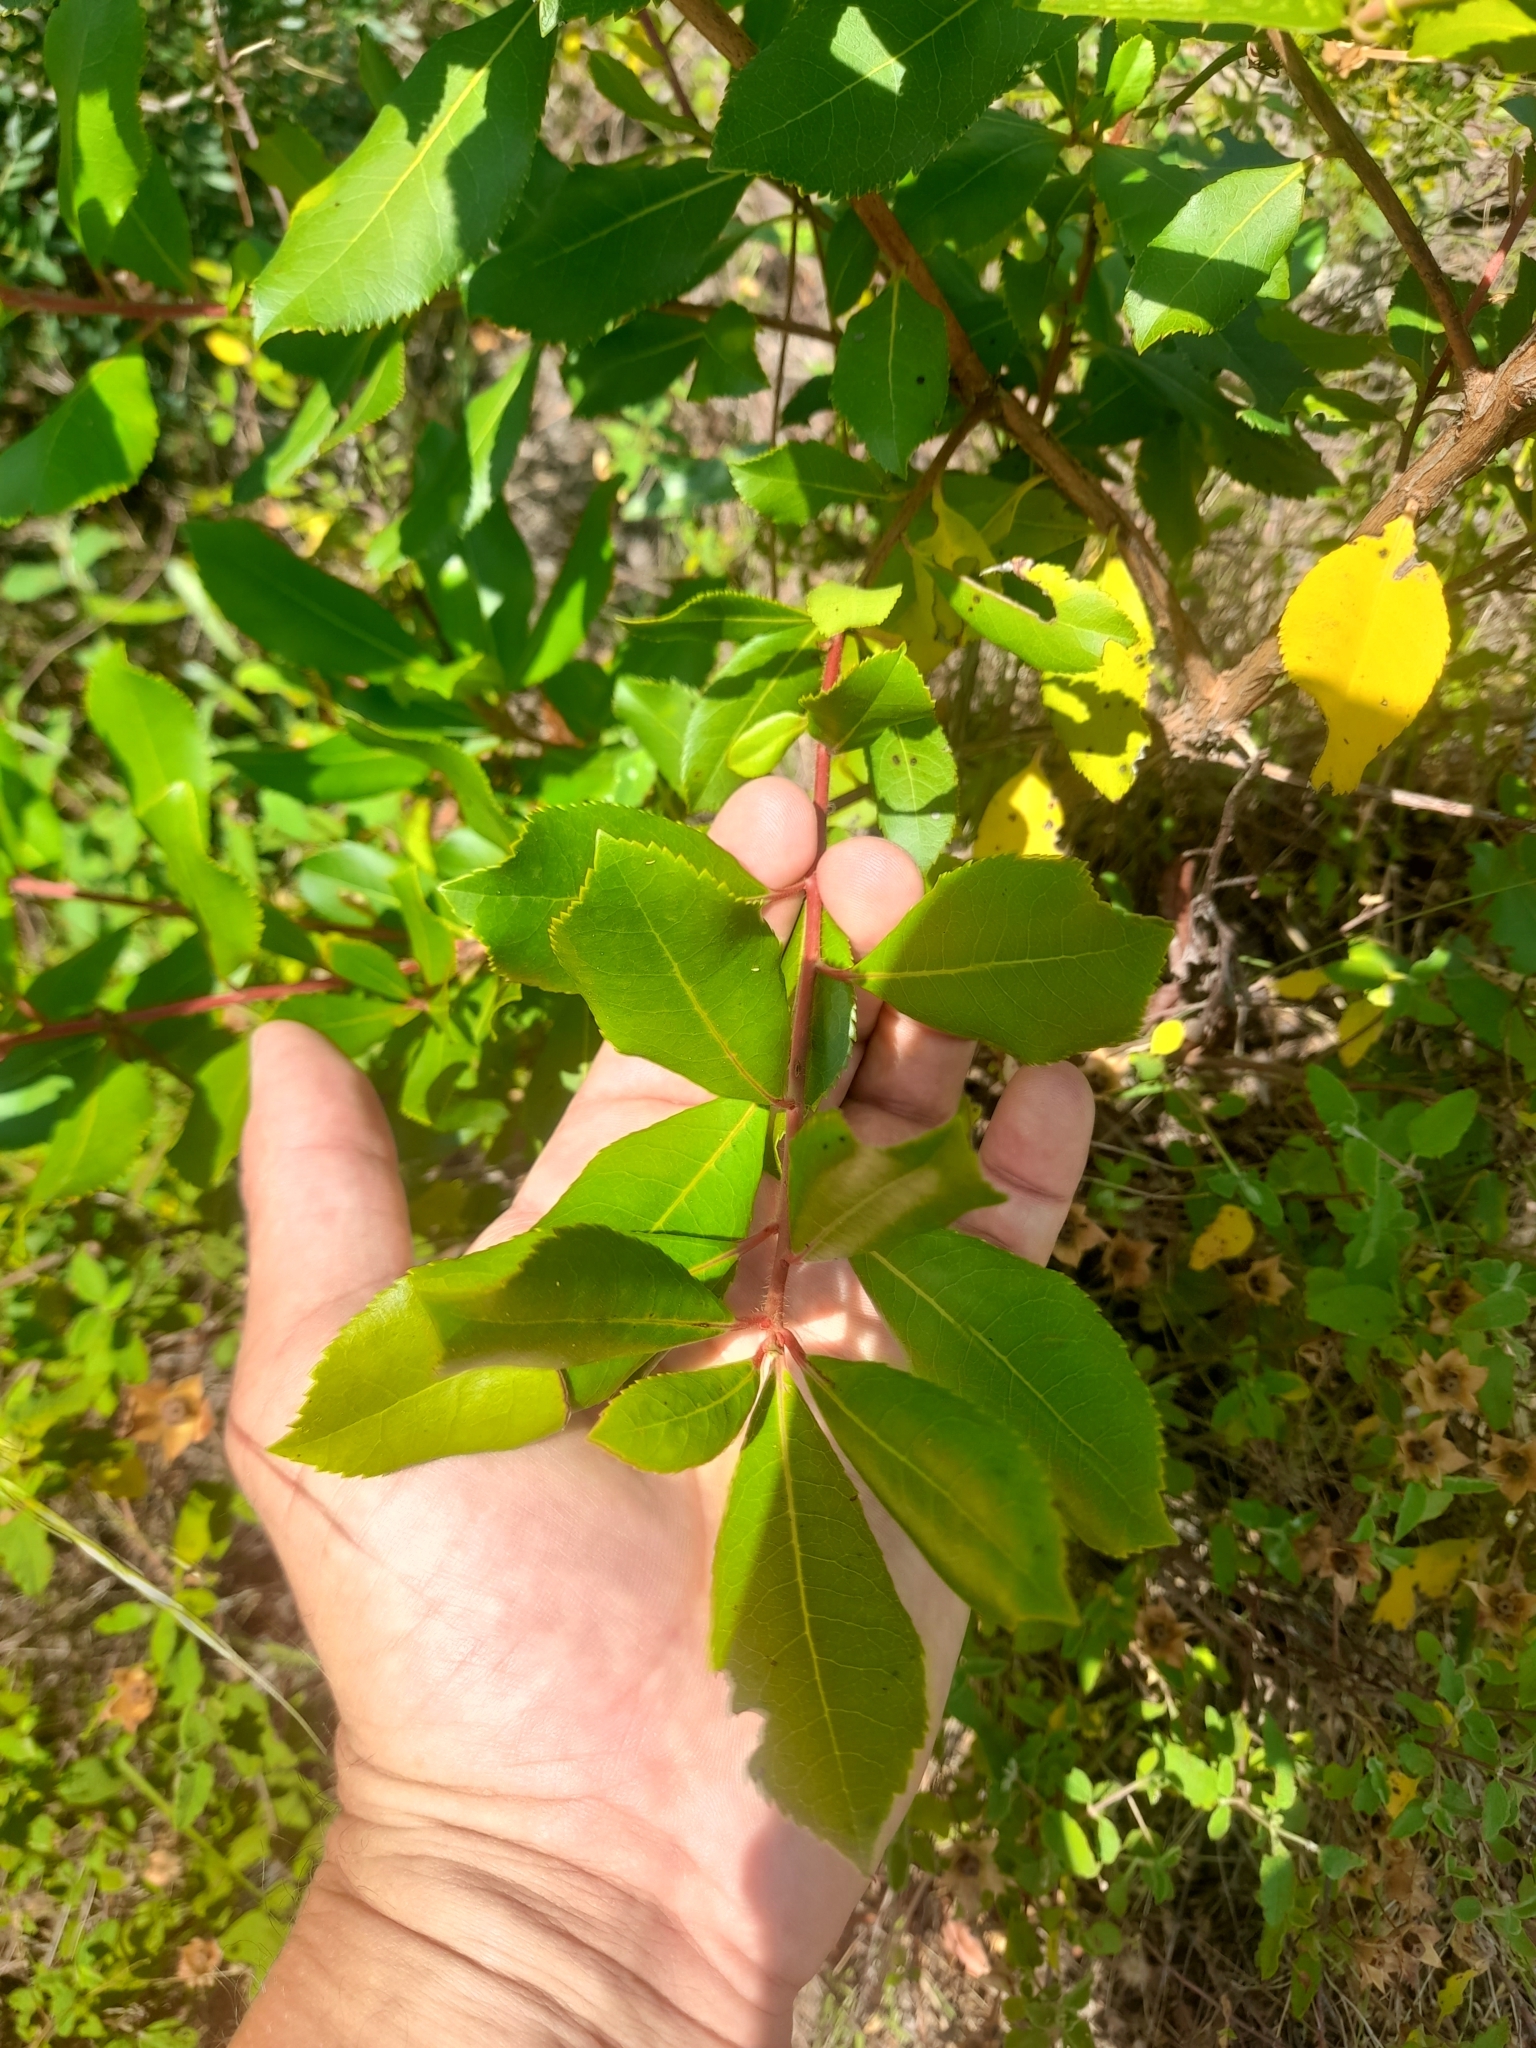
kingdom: Plantae
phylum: Tracheophyta
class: Magnoliopsida
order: Ericales
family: Ericaceae
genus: Arbutus
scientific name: Arbutus unedo
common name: Strawberry-tree
